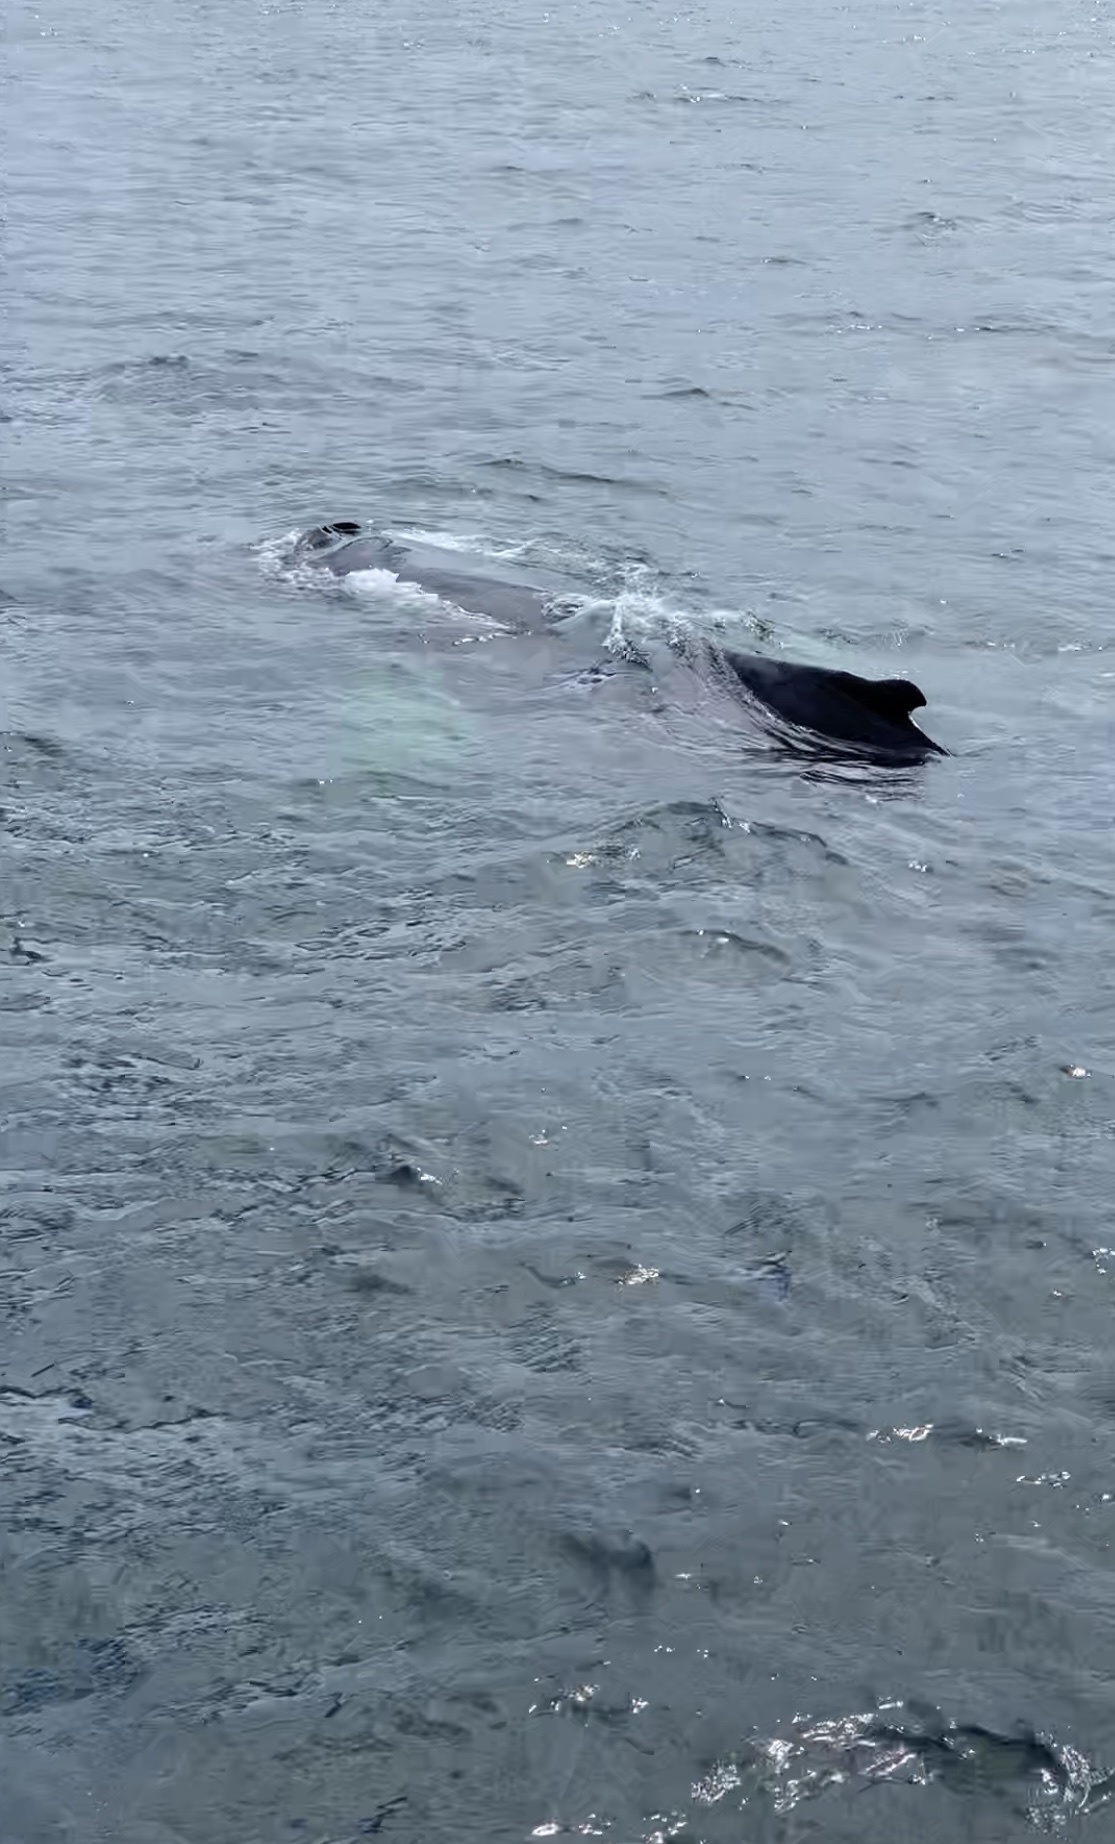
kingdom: Animalia
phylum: Chordata
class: Mammalia
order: Cetacea
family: Balaenopteridae
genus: Megaptera
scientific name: Megaptera novaeangliae
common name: Humpback whale
